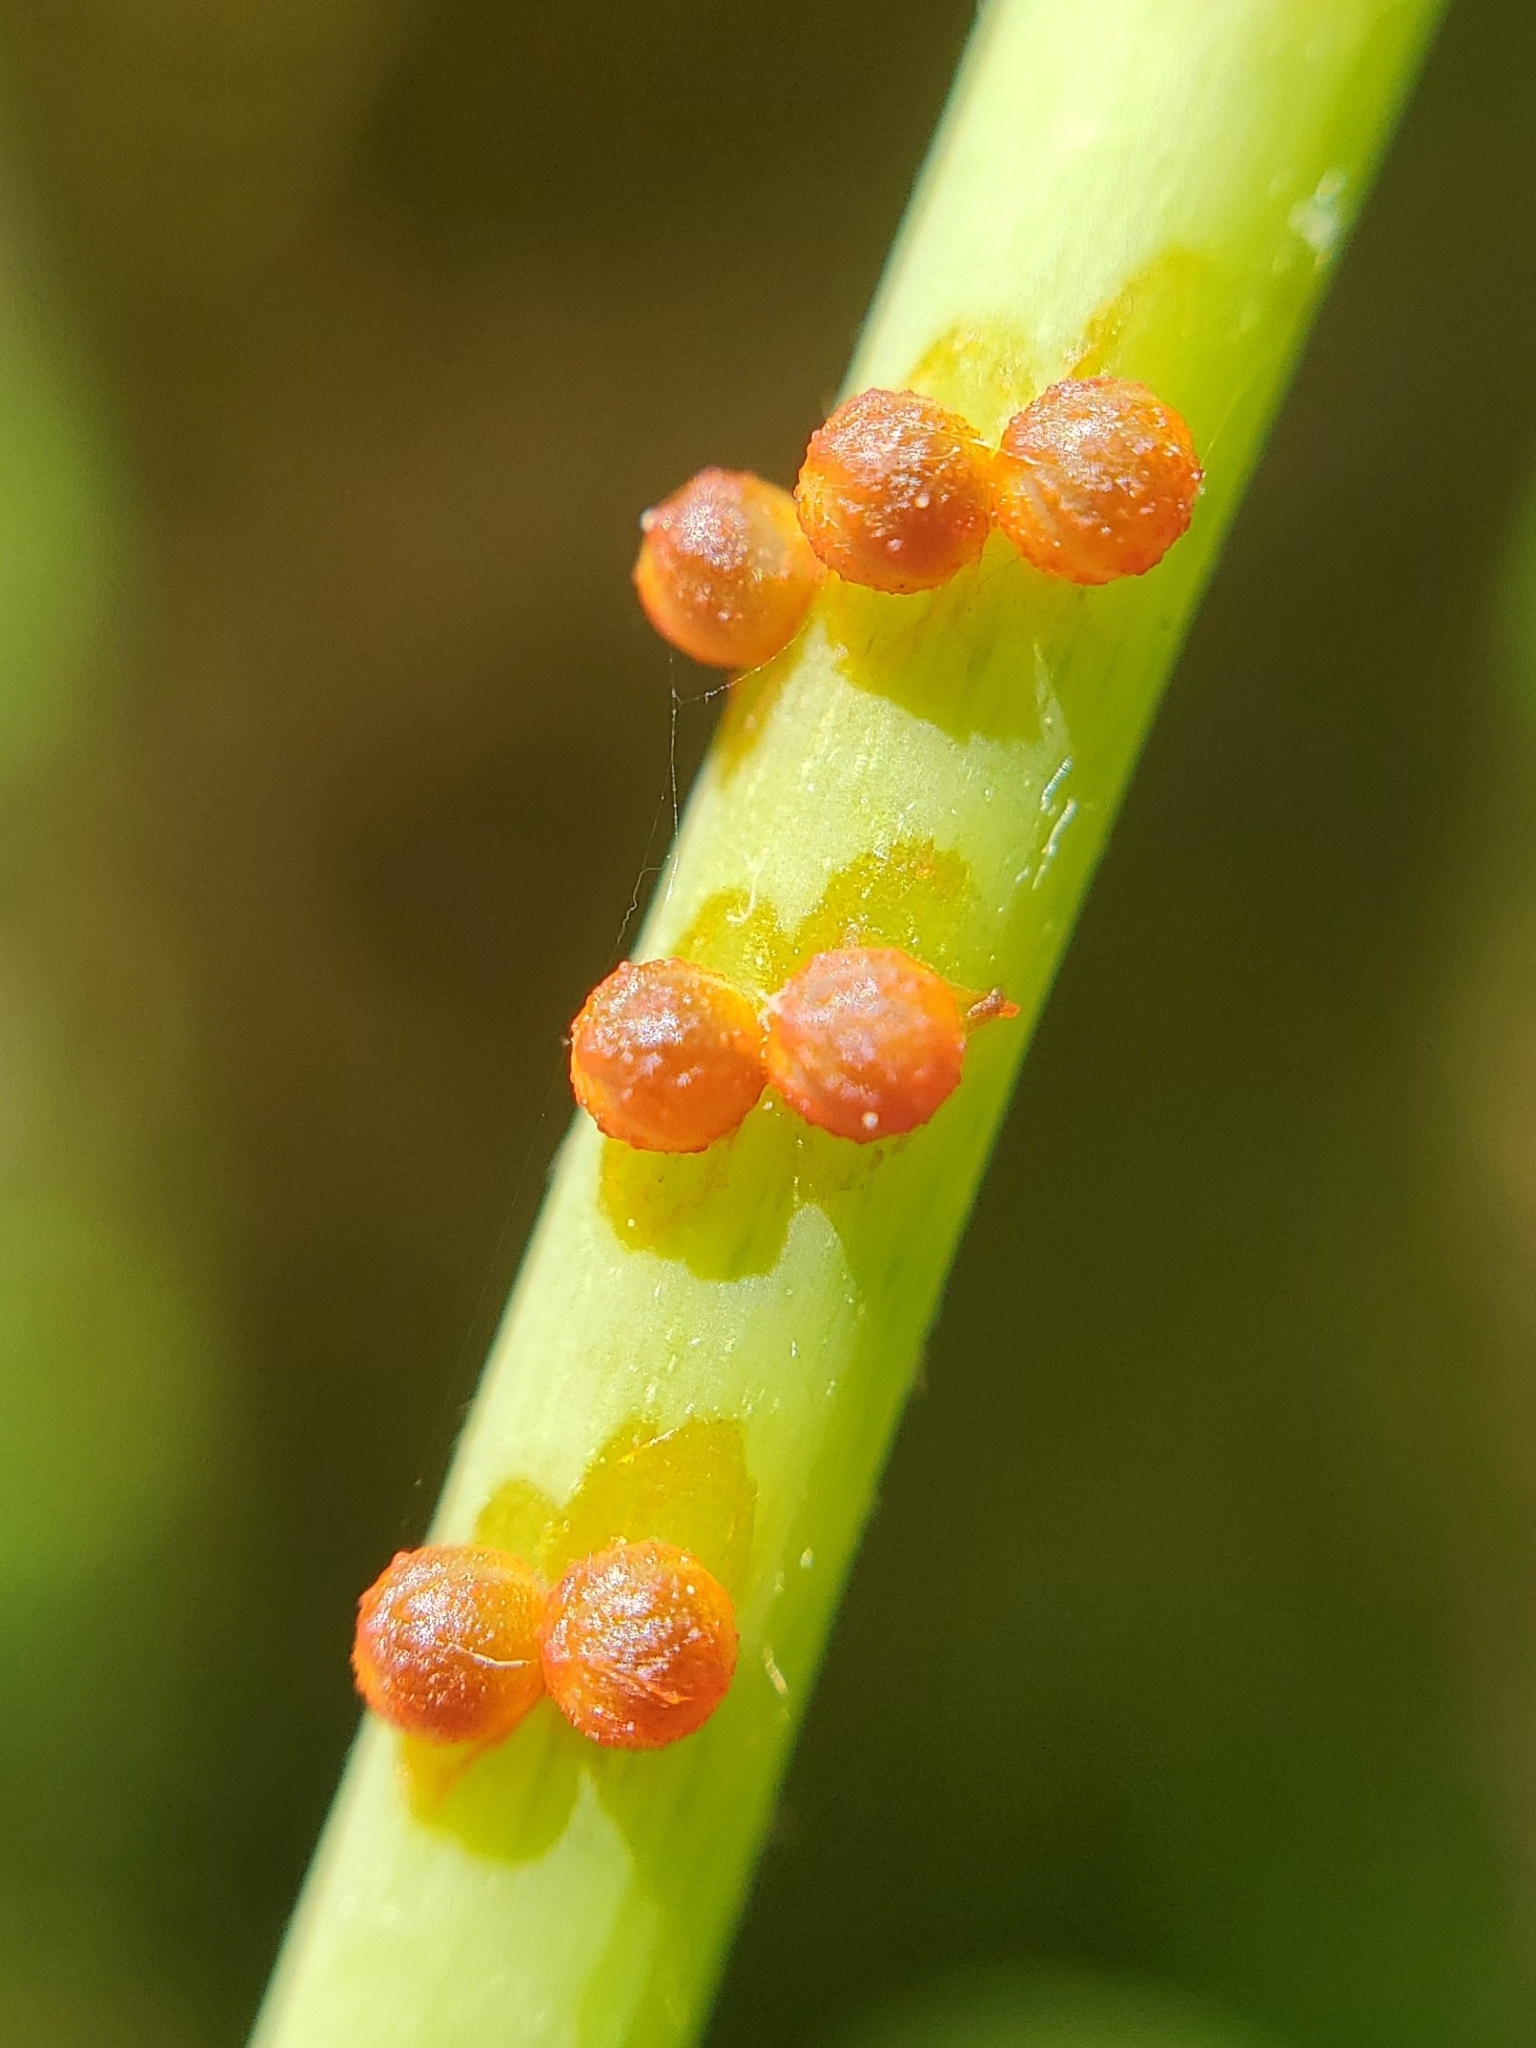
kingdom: Animalia
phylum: Arthropoda
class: Insecta
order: Lepidoptera
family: Papilionidae
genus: Battus
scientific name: Battus philenor
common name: Pipevine swallowtail
